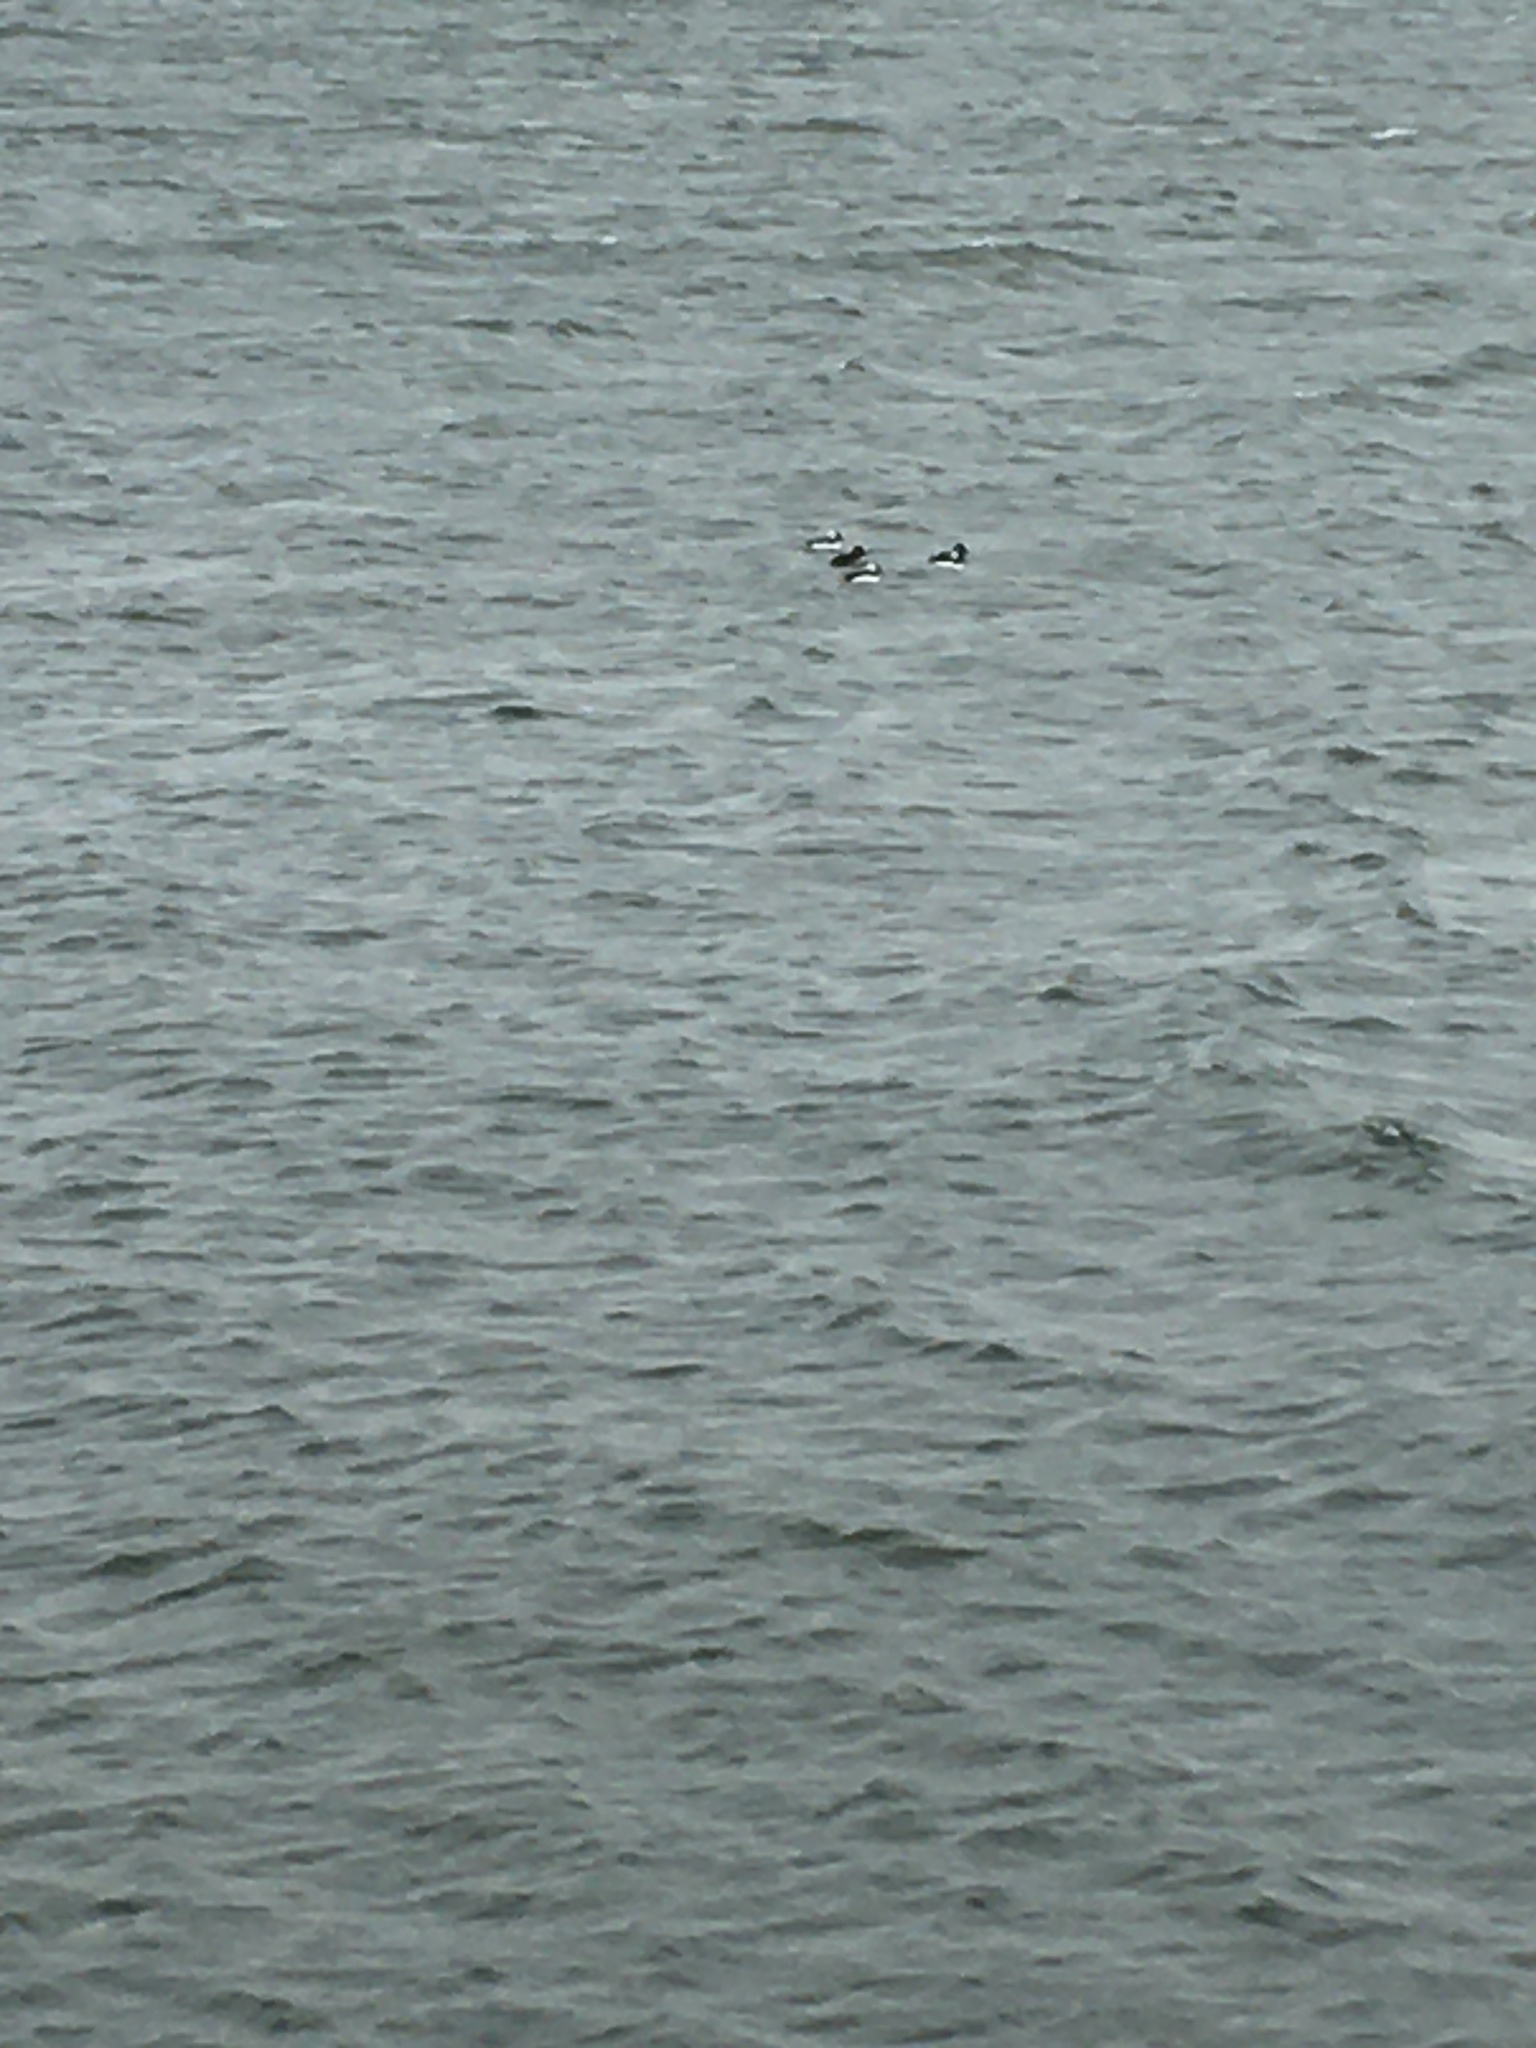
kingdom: Animalia
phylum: Chordata
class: Aves
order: Anseriformes
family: Anatidae
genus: Bucephala
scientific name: Bucephala albeola
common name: Bufflehead
